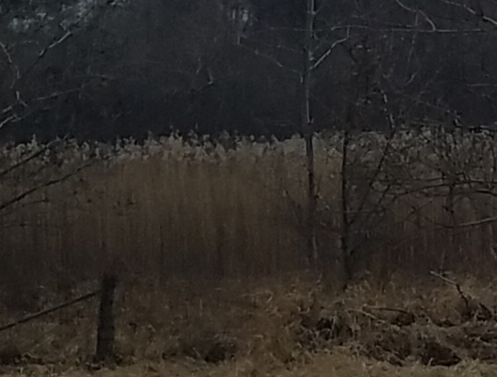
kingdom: Plantae
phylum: Tracheophyta
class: Liliopsida
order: Poales
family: Poaceae
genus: Phragmites
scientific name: Phragmites australis
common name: Common reed
